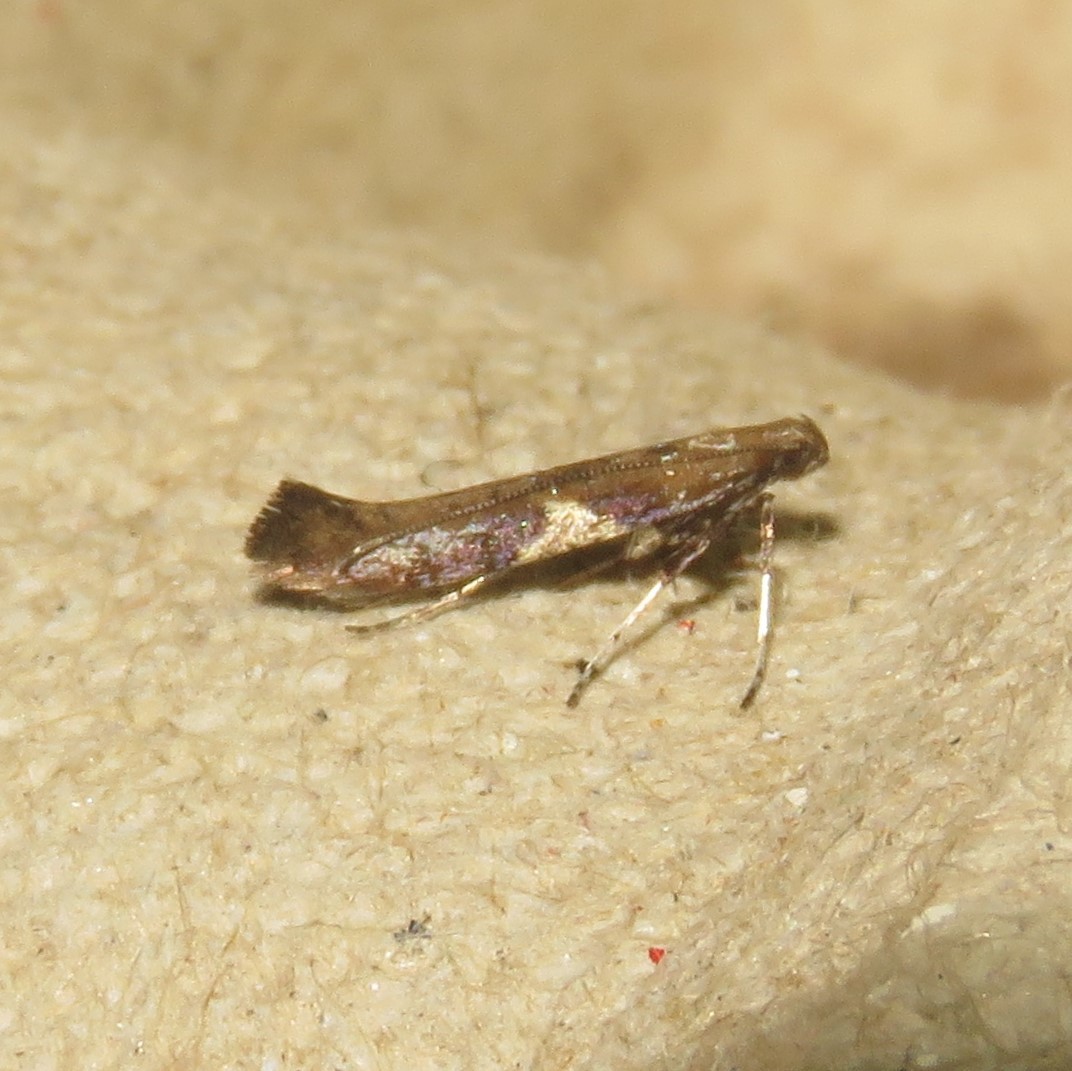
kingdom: Animalia
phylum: Arthropoda
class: Insecta
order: Lepidoptera
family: Gracillariidae
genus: Caloptilia
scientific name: Caloptilia stigmatella
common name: White-triangle slender
